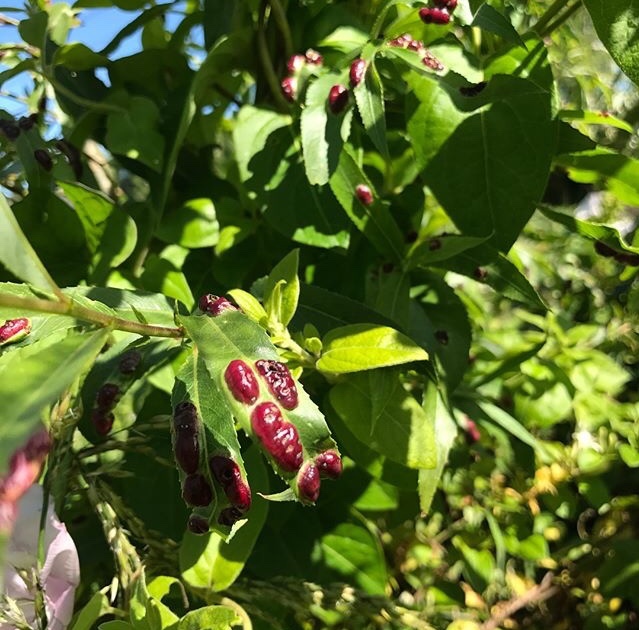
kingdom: Animalia
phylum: Arthropoda
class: Insecta
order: Hymenoptera
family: Tenthredinidae
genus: Pontania
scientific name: Pontania proxima
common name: Common sawfly
